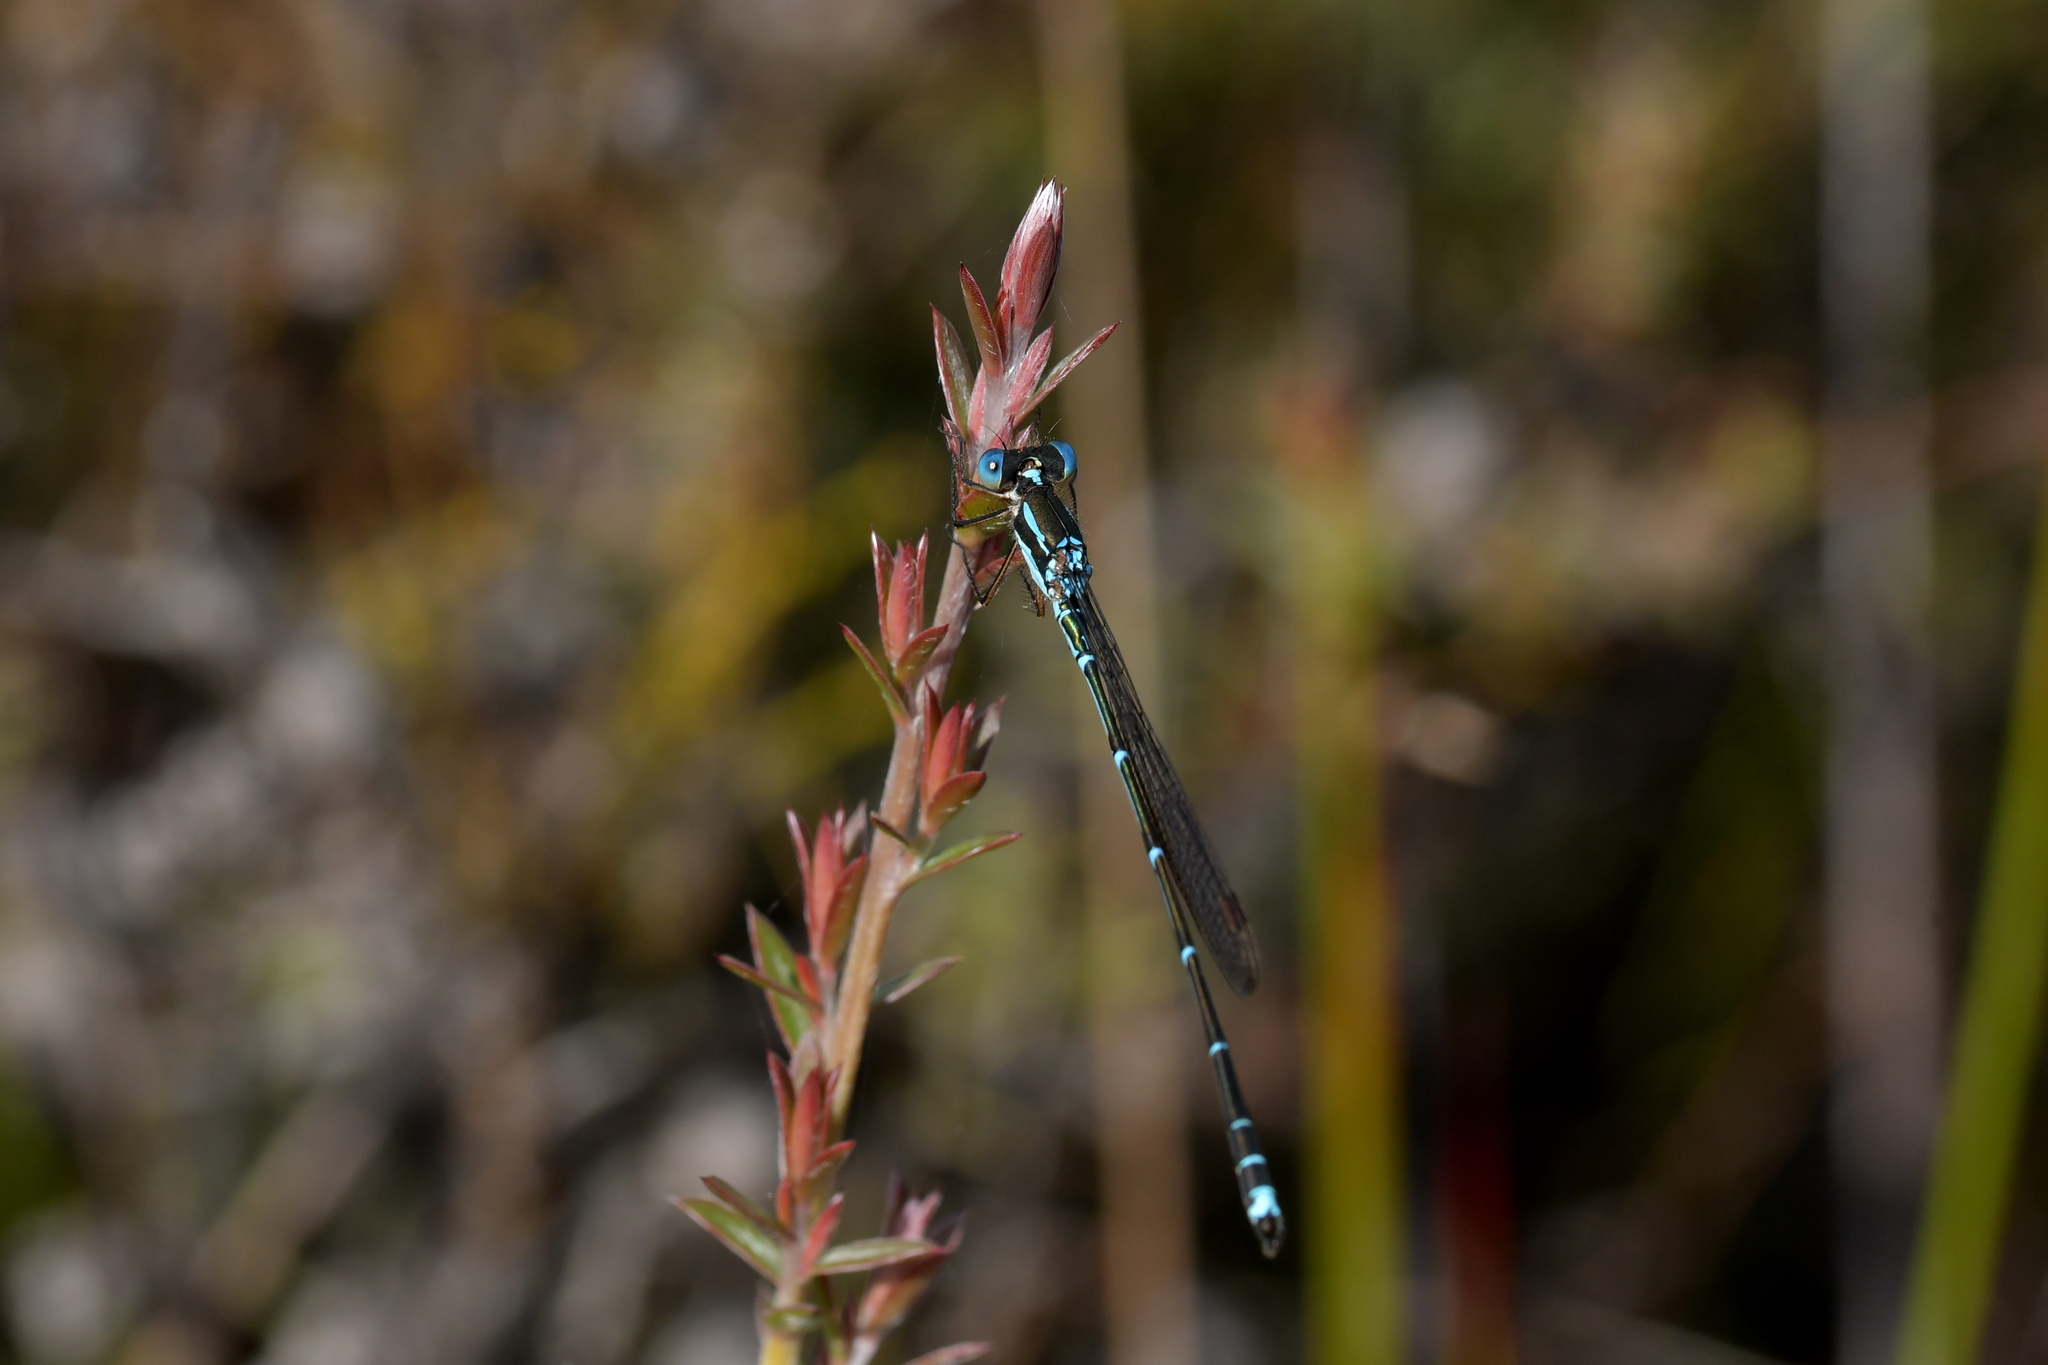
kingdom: Animalia
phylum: Arthropoda
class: Insecta
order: Odonata
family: Lestidae
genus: Austrolestes
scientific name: Austrolestes colensonis
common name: Blue damselfly
